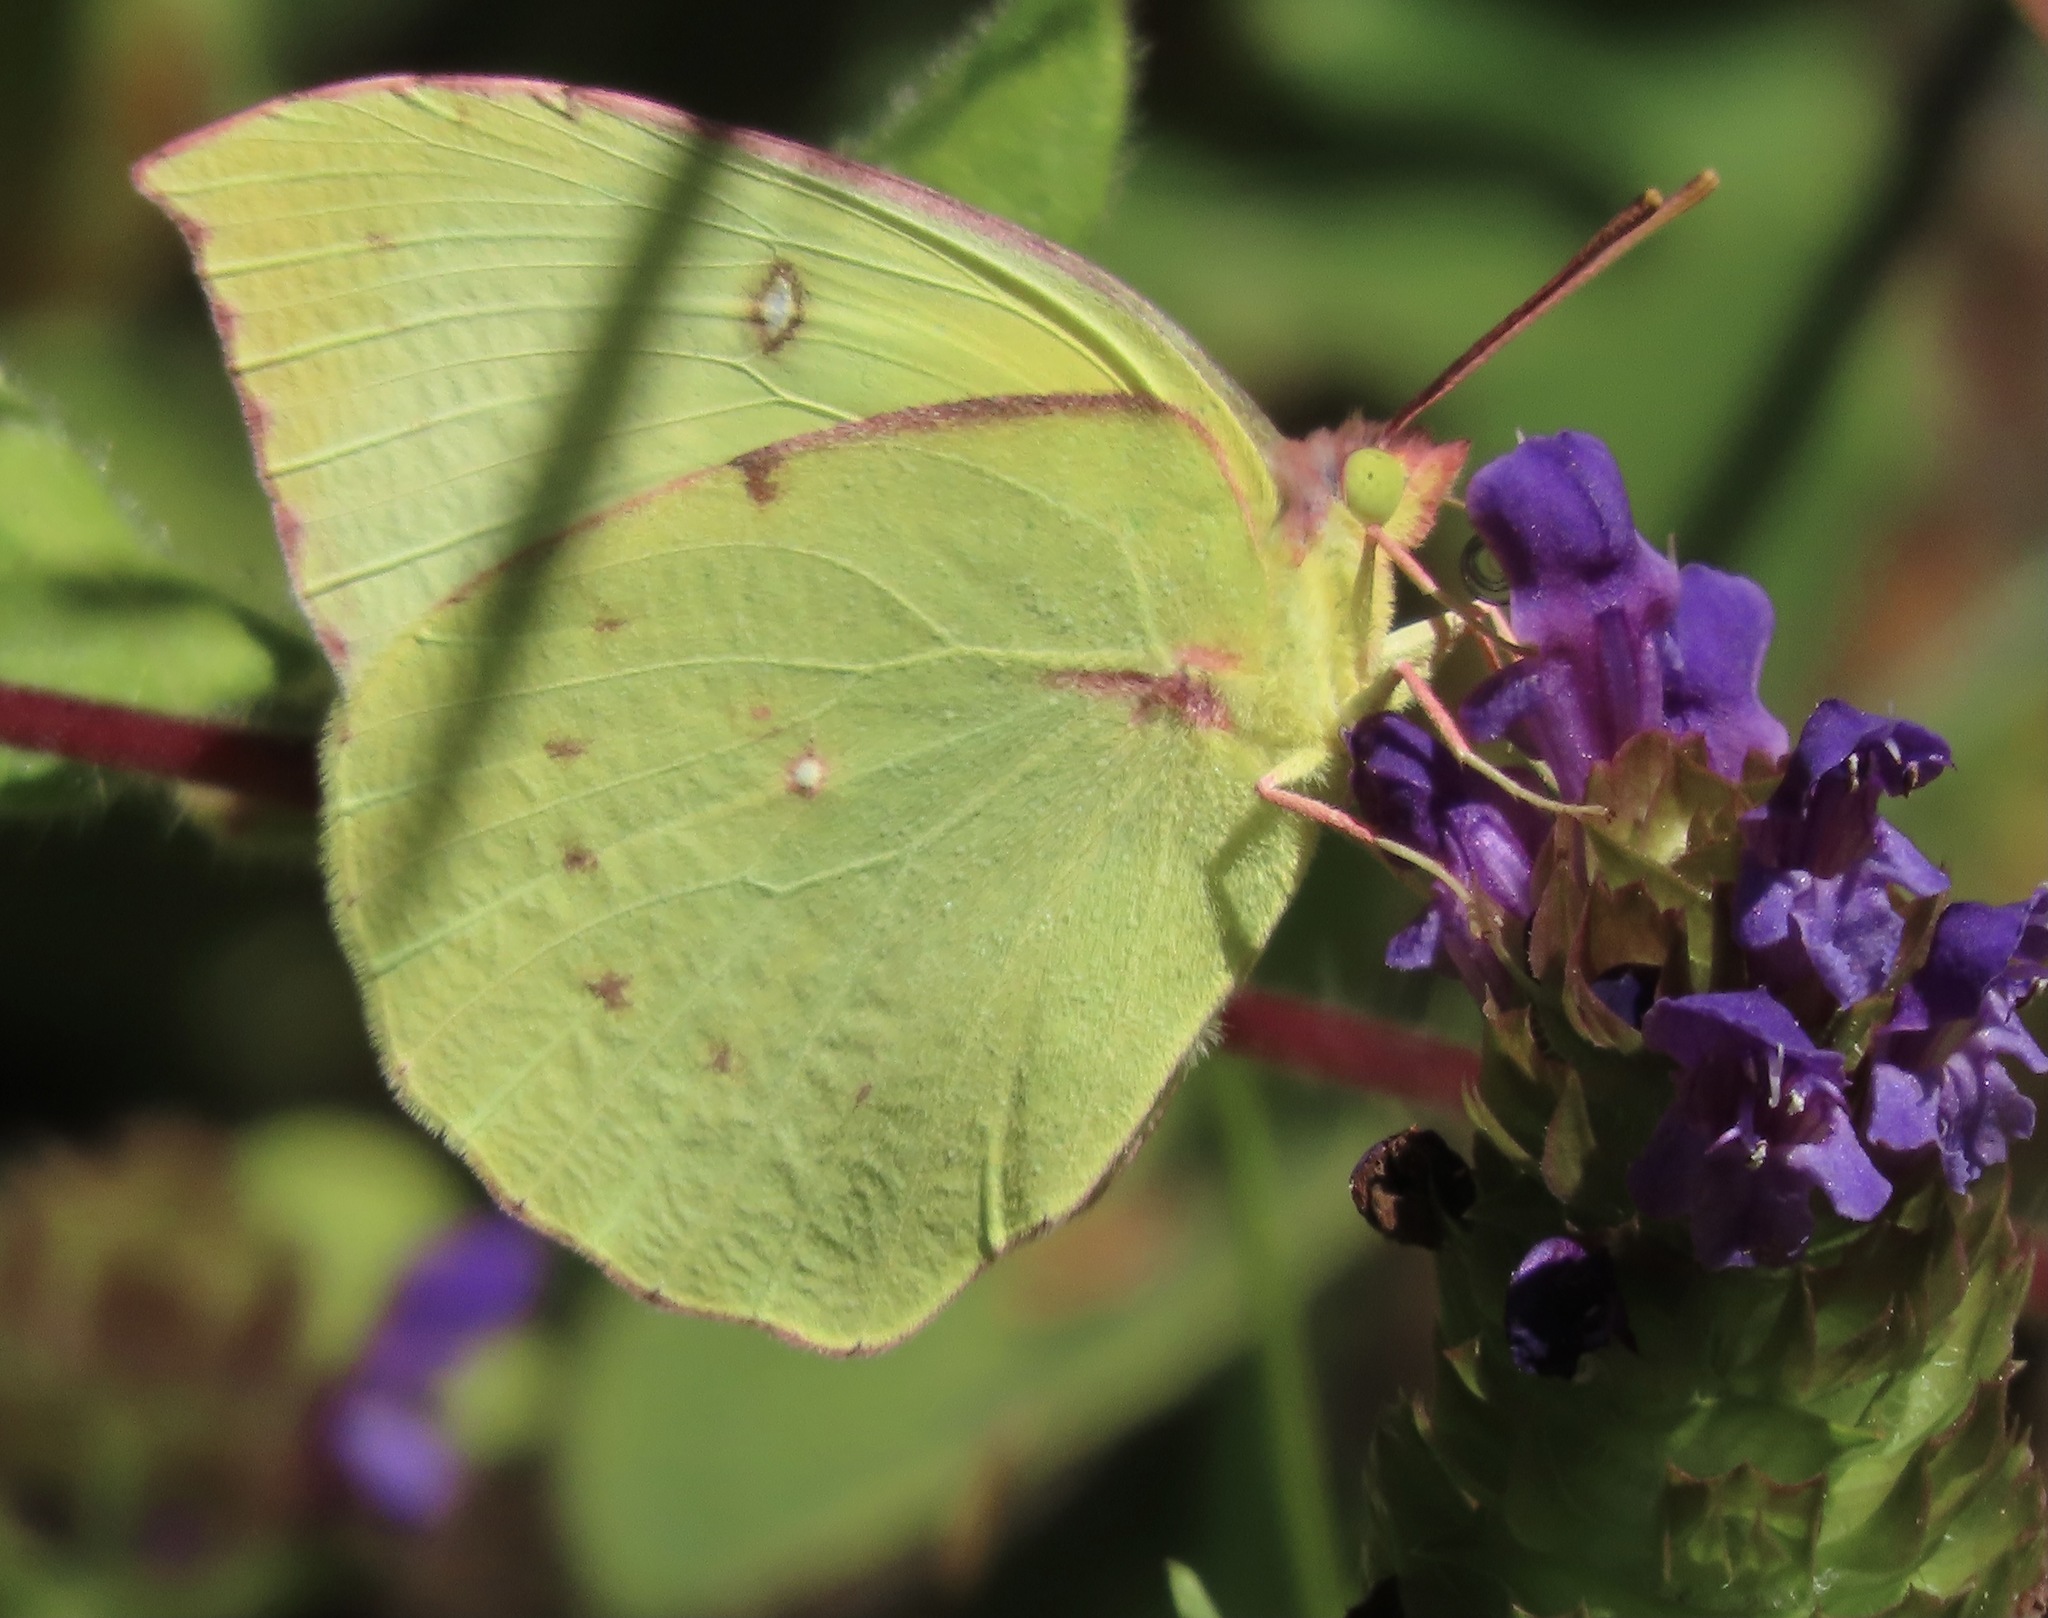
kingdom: Animalia
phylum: Arthropoda
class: Insecta
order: Lepidoptera
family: Pieridae
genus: Zerene
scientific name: Zerene eurydice
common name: California dogface
